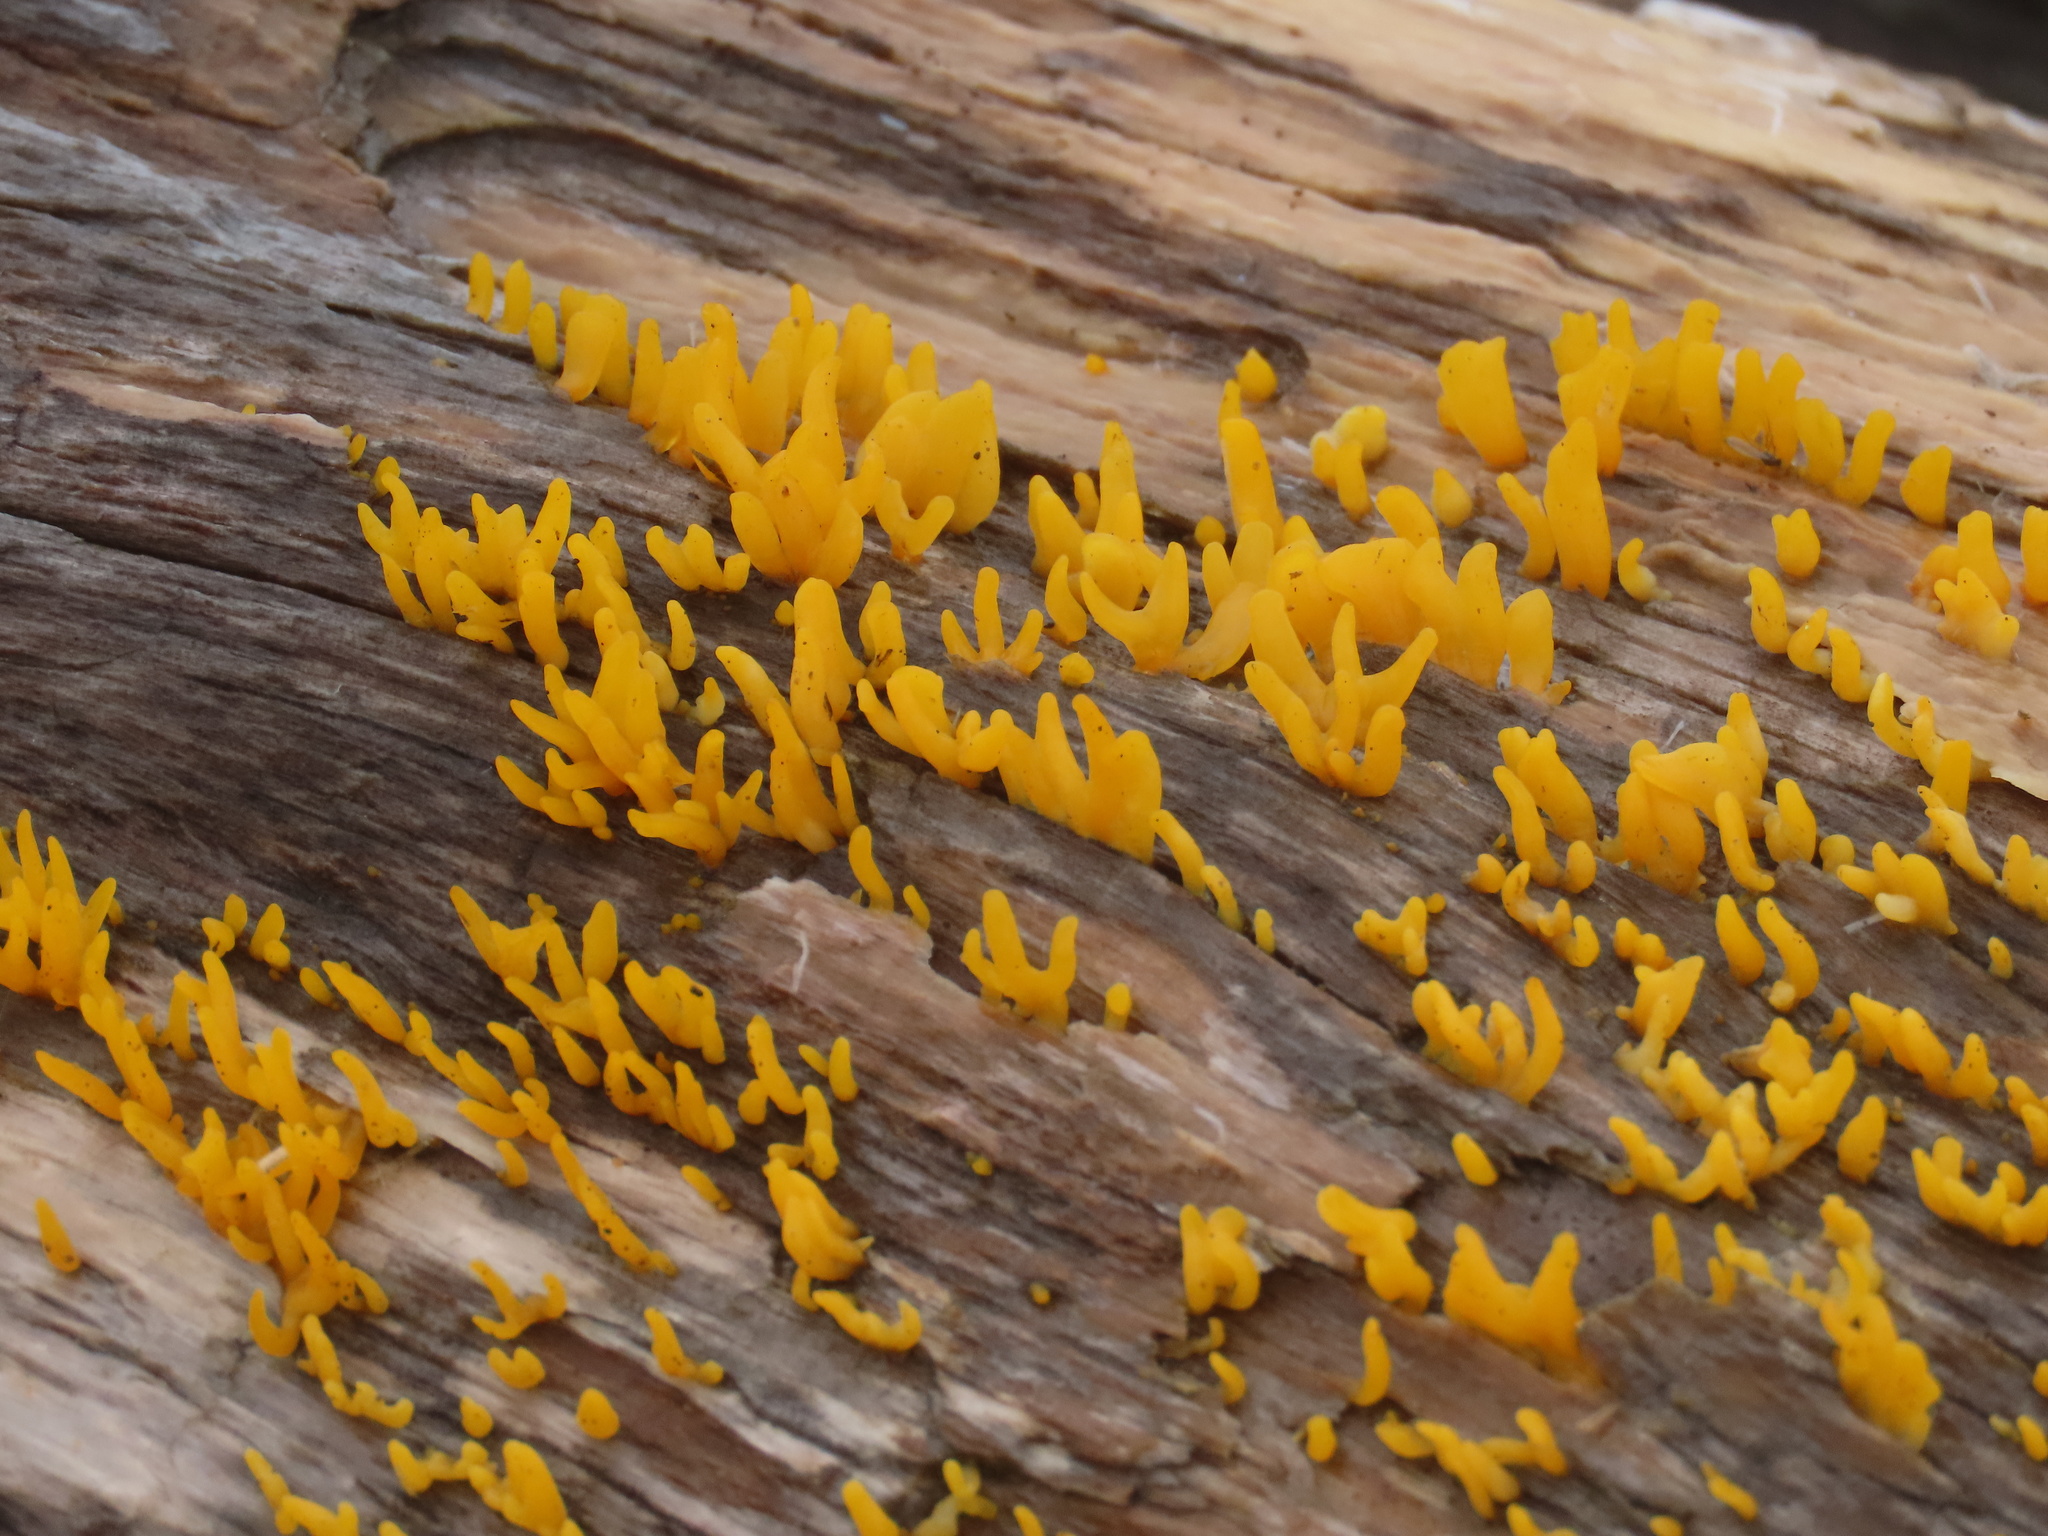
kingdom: Fungi
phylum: Basidiomycota
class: Dacrymycetes
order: Dacrymycetales
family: Dacrymycetaceae
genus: Calocera
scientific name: Calocera cornea
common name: Small stagshorn
